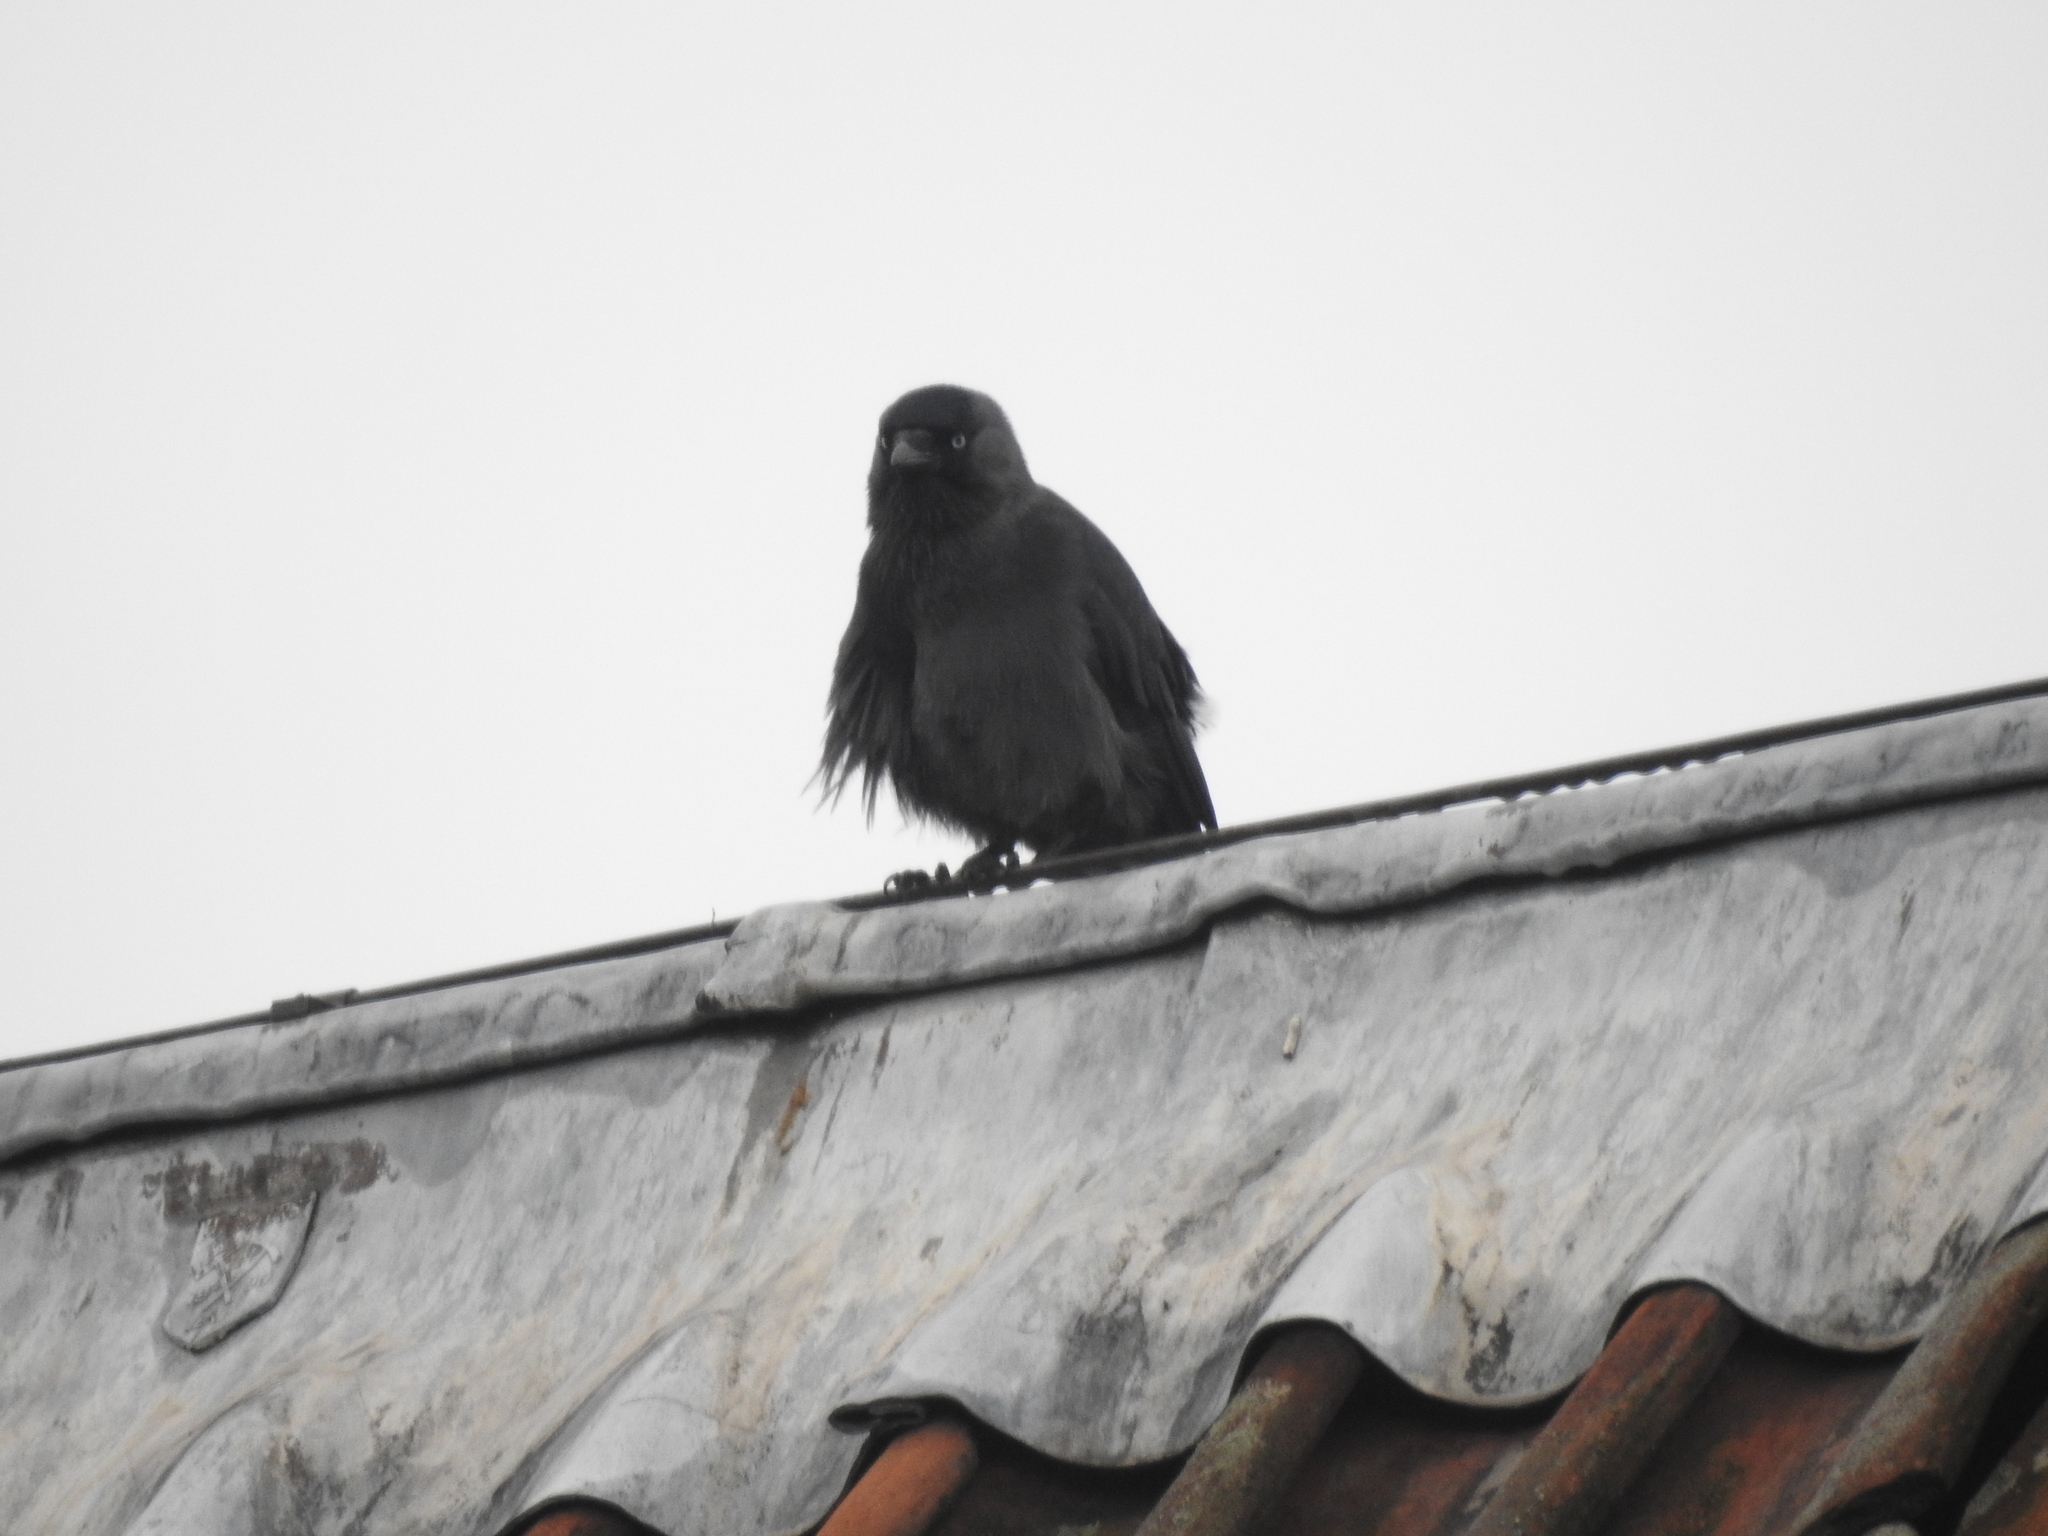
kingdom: Animalia
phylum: Chordata
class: Aves
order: Passeriformes
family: Corvidae
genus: Coloeus
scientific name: Coloeus monedula
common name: Western jackdaw
